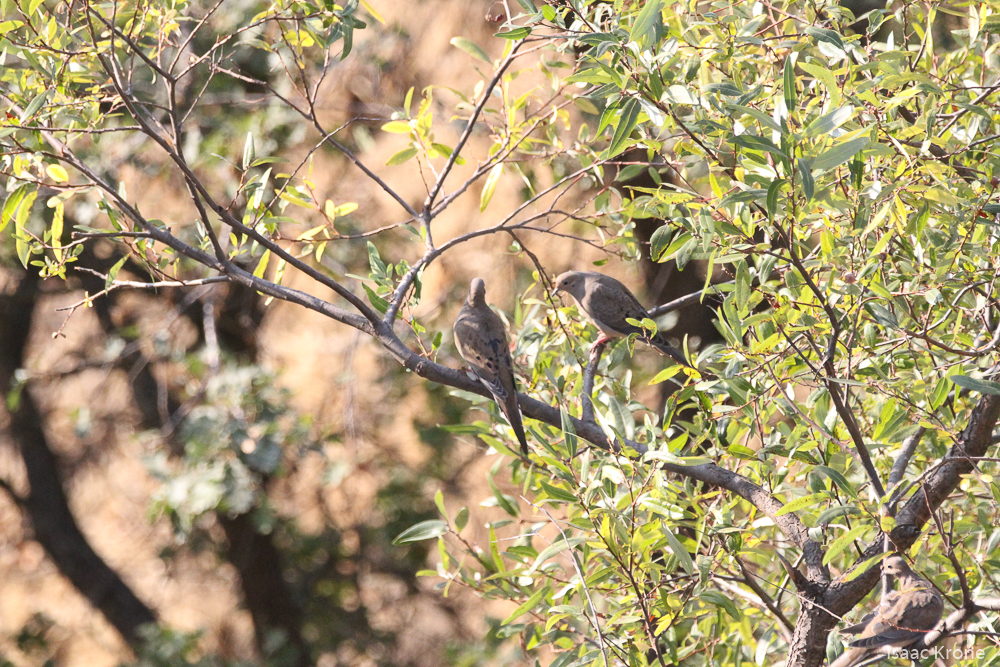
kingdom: Animalia
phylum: Chordata
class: Aves
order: Columbiformes
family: Columbidae
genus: Zenaida
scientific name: Zenaida macroura
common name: Mourning dove
